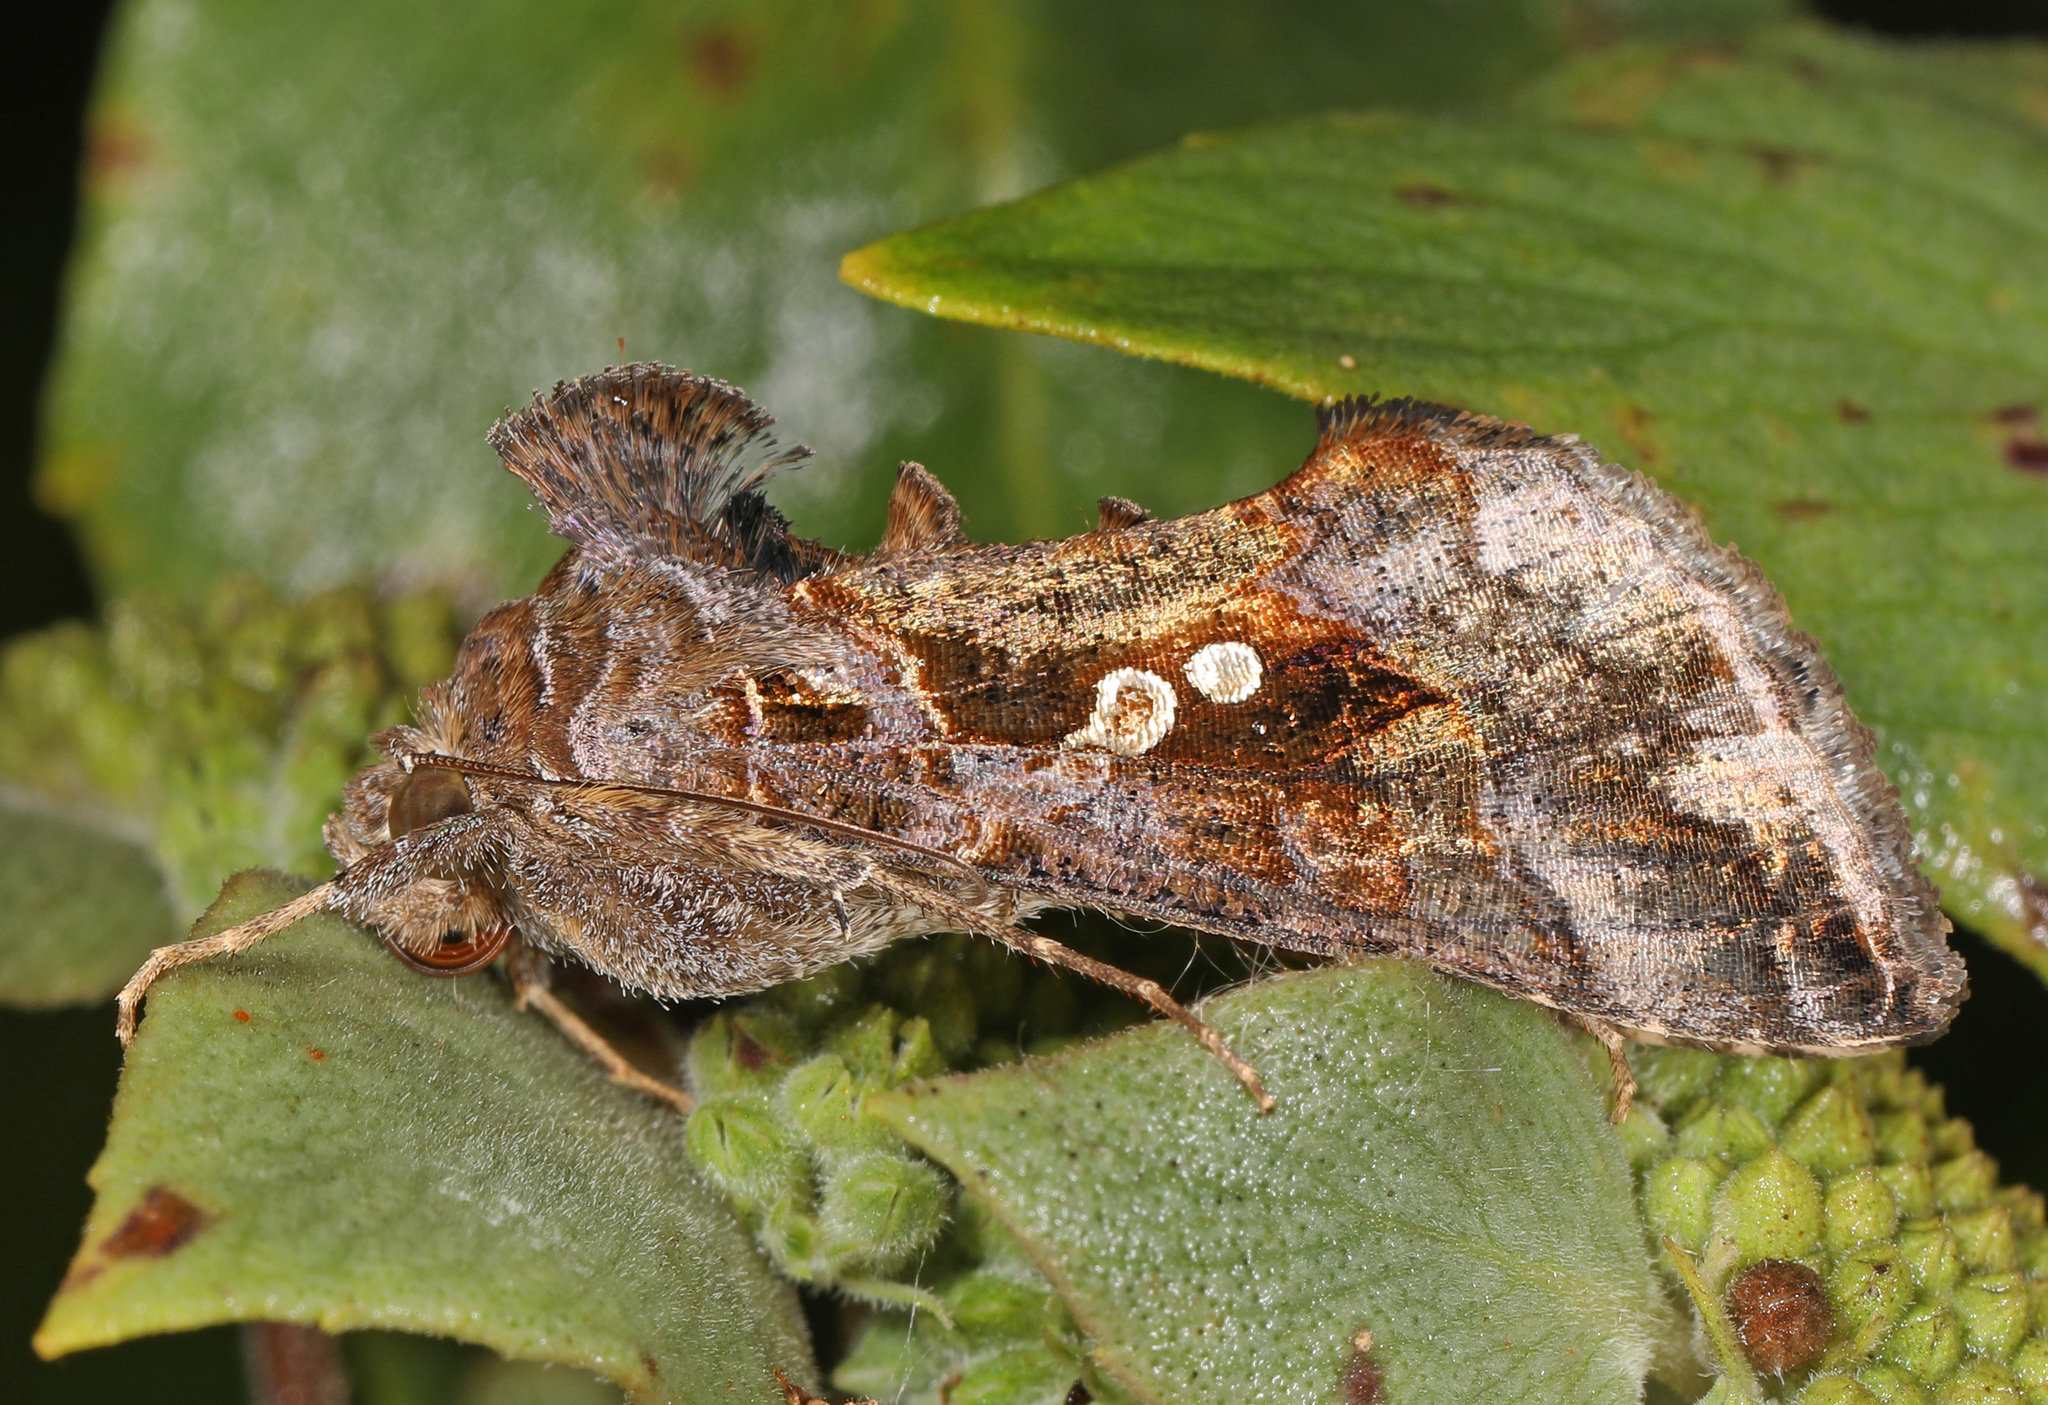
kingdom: Animalia
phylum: Arthropoda
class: Insecta
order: Lepidoptera
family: Noctuidae
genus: Chrysodeixis
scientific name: Chrysodeixis includens
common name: Cutworm moth
